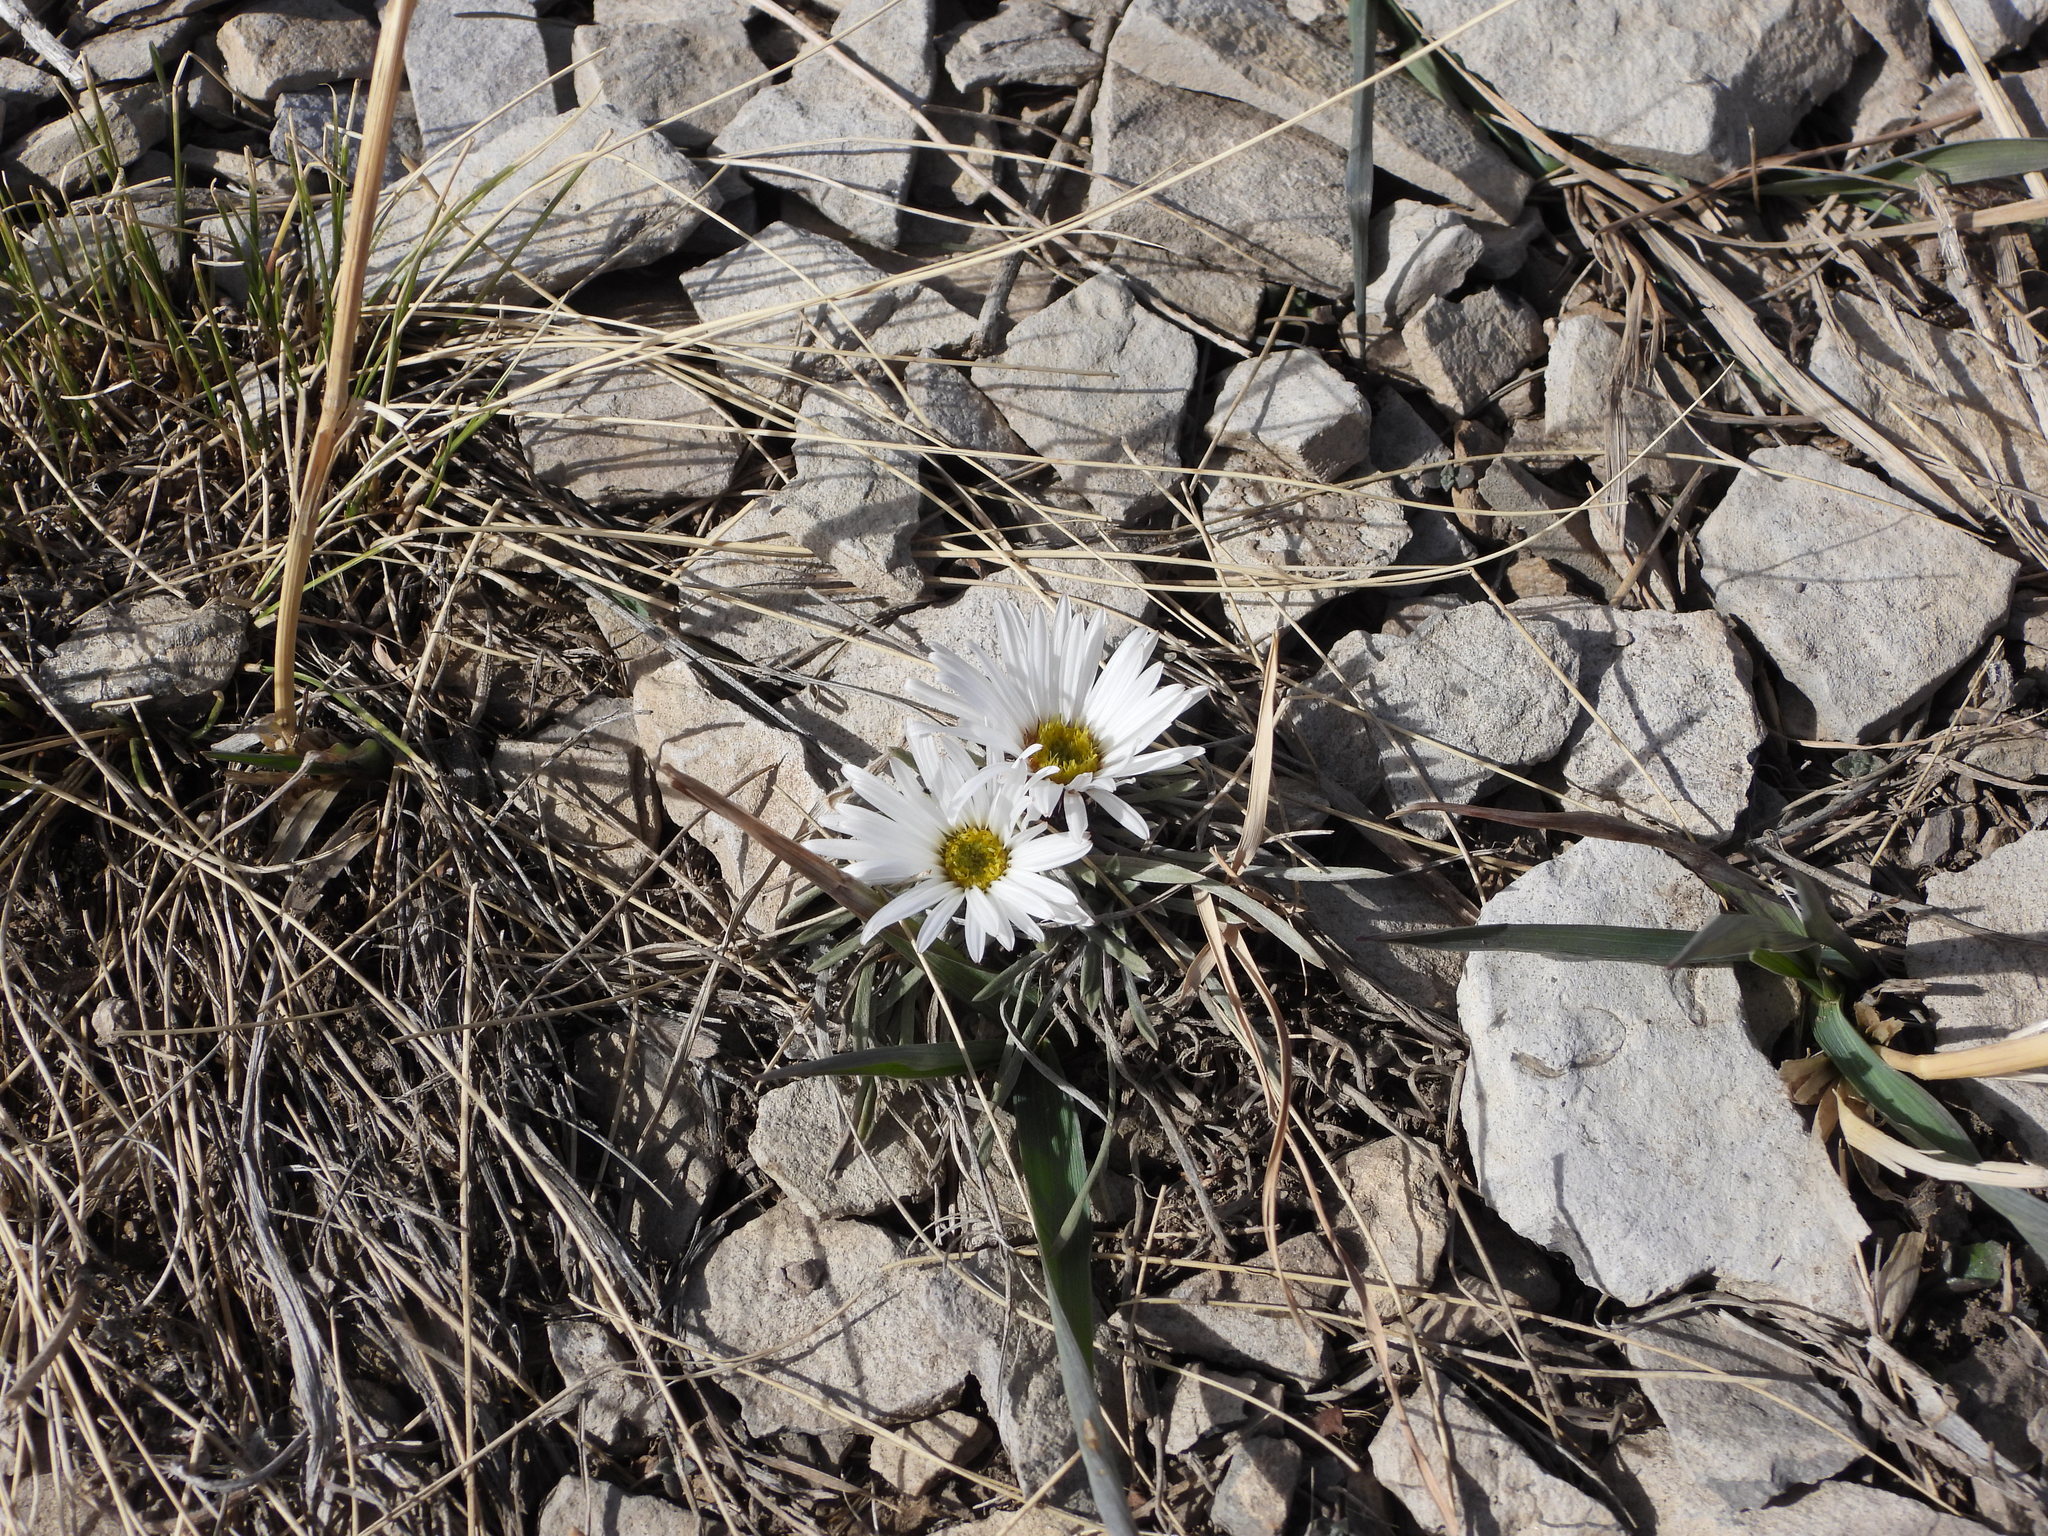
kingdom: Plantae
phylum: Tracheophyta
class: Magnoliopsida
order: Asterales
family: Asteraceae
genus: Townsendia
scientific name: Townsendia hookeri
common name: Hooker's townsend daisy
